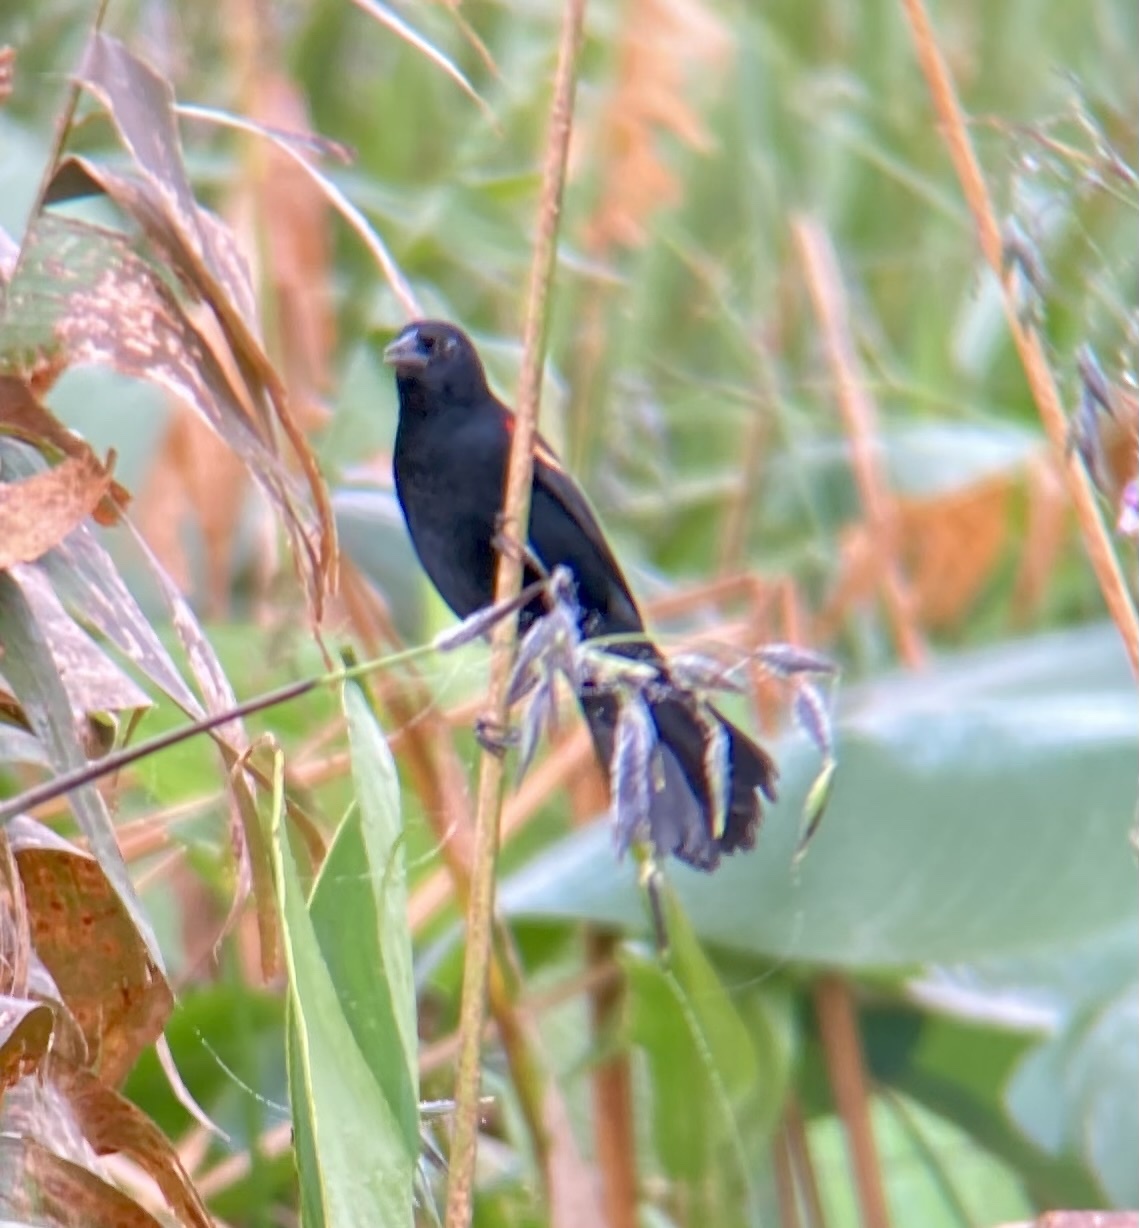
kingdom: Animalia
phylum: Chordata
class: Aves
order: Passeriformes
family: Icteridae
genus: Agelaius
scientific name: Agelaius phoeniceus
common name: Red-winged blackbird
